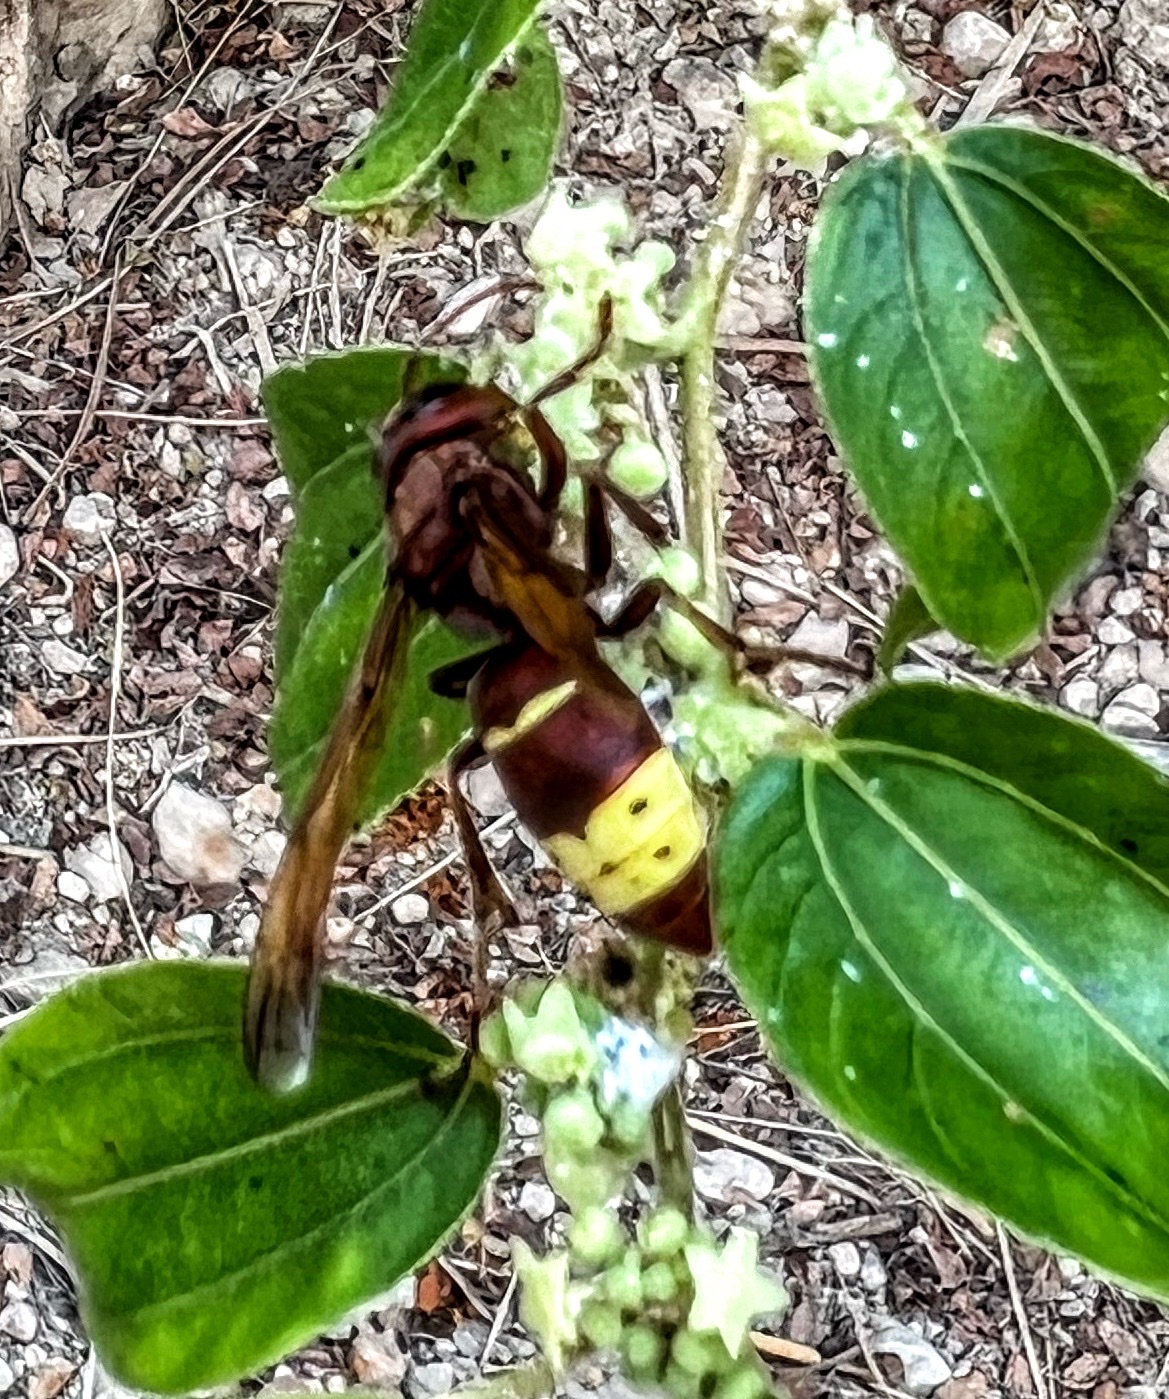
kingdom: Animalia
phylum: Arthropoda
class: Insecta
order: Hymenoptera
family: Vespidae
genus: Vespa
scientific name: Vespa orientalis
